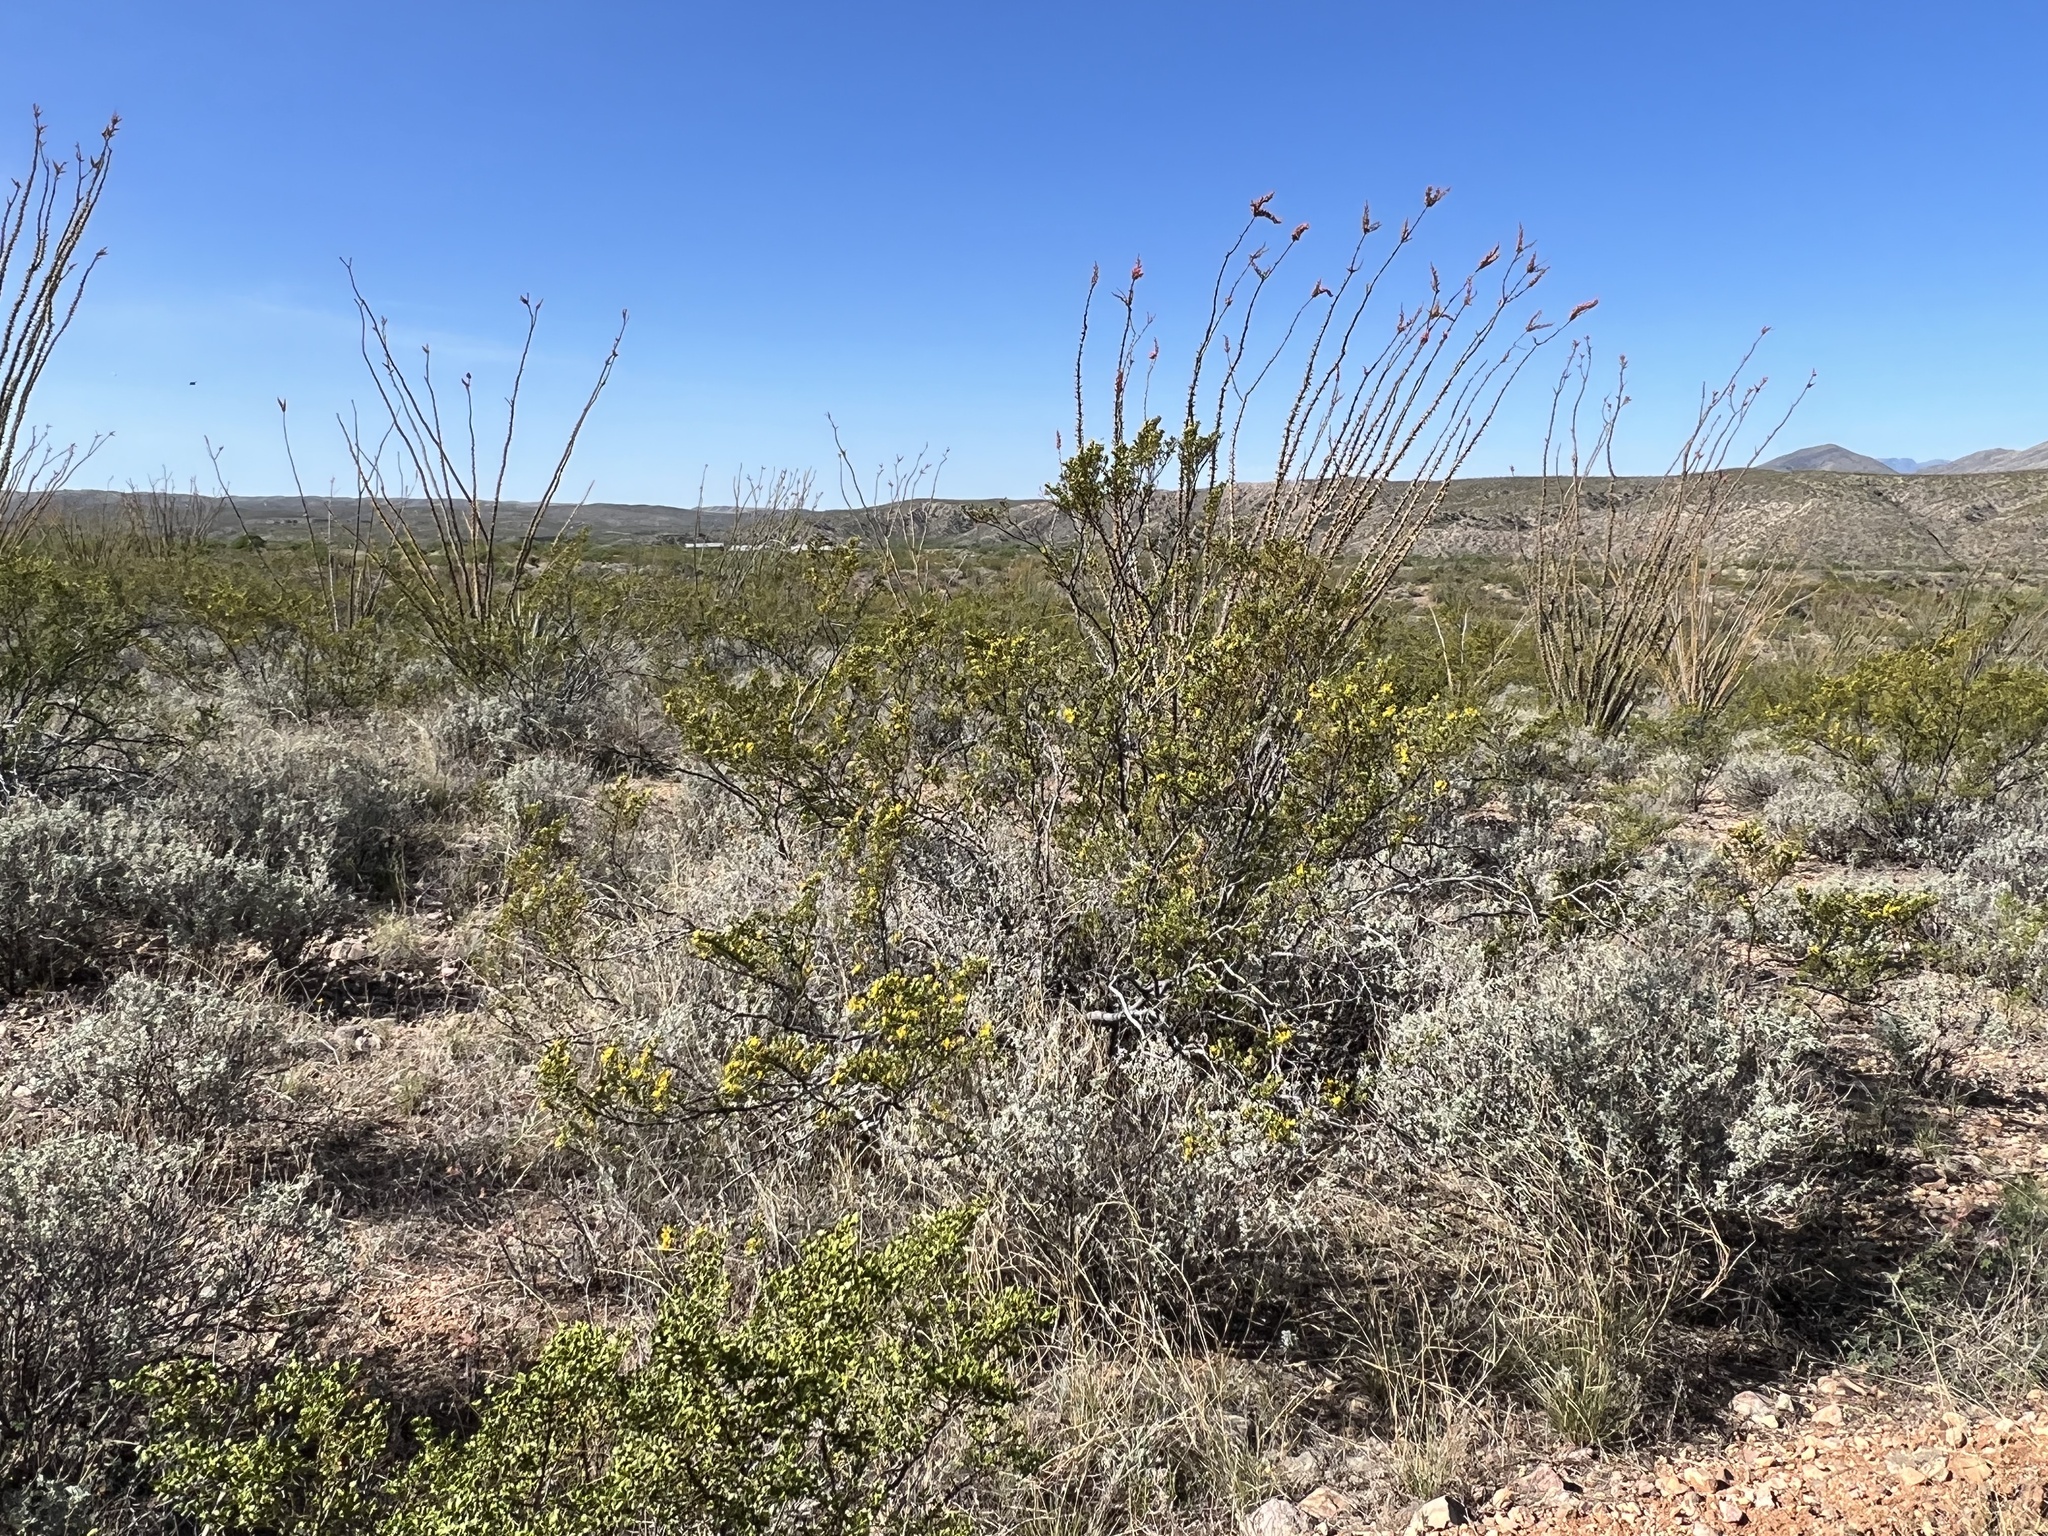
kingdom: Plantae
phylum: Tracheophyta
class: Magnoliopsida
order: Zygophyllales
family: Zygophyllaceae
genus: Larrea
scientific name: Larrea tridentata
